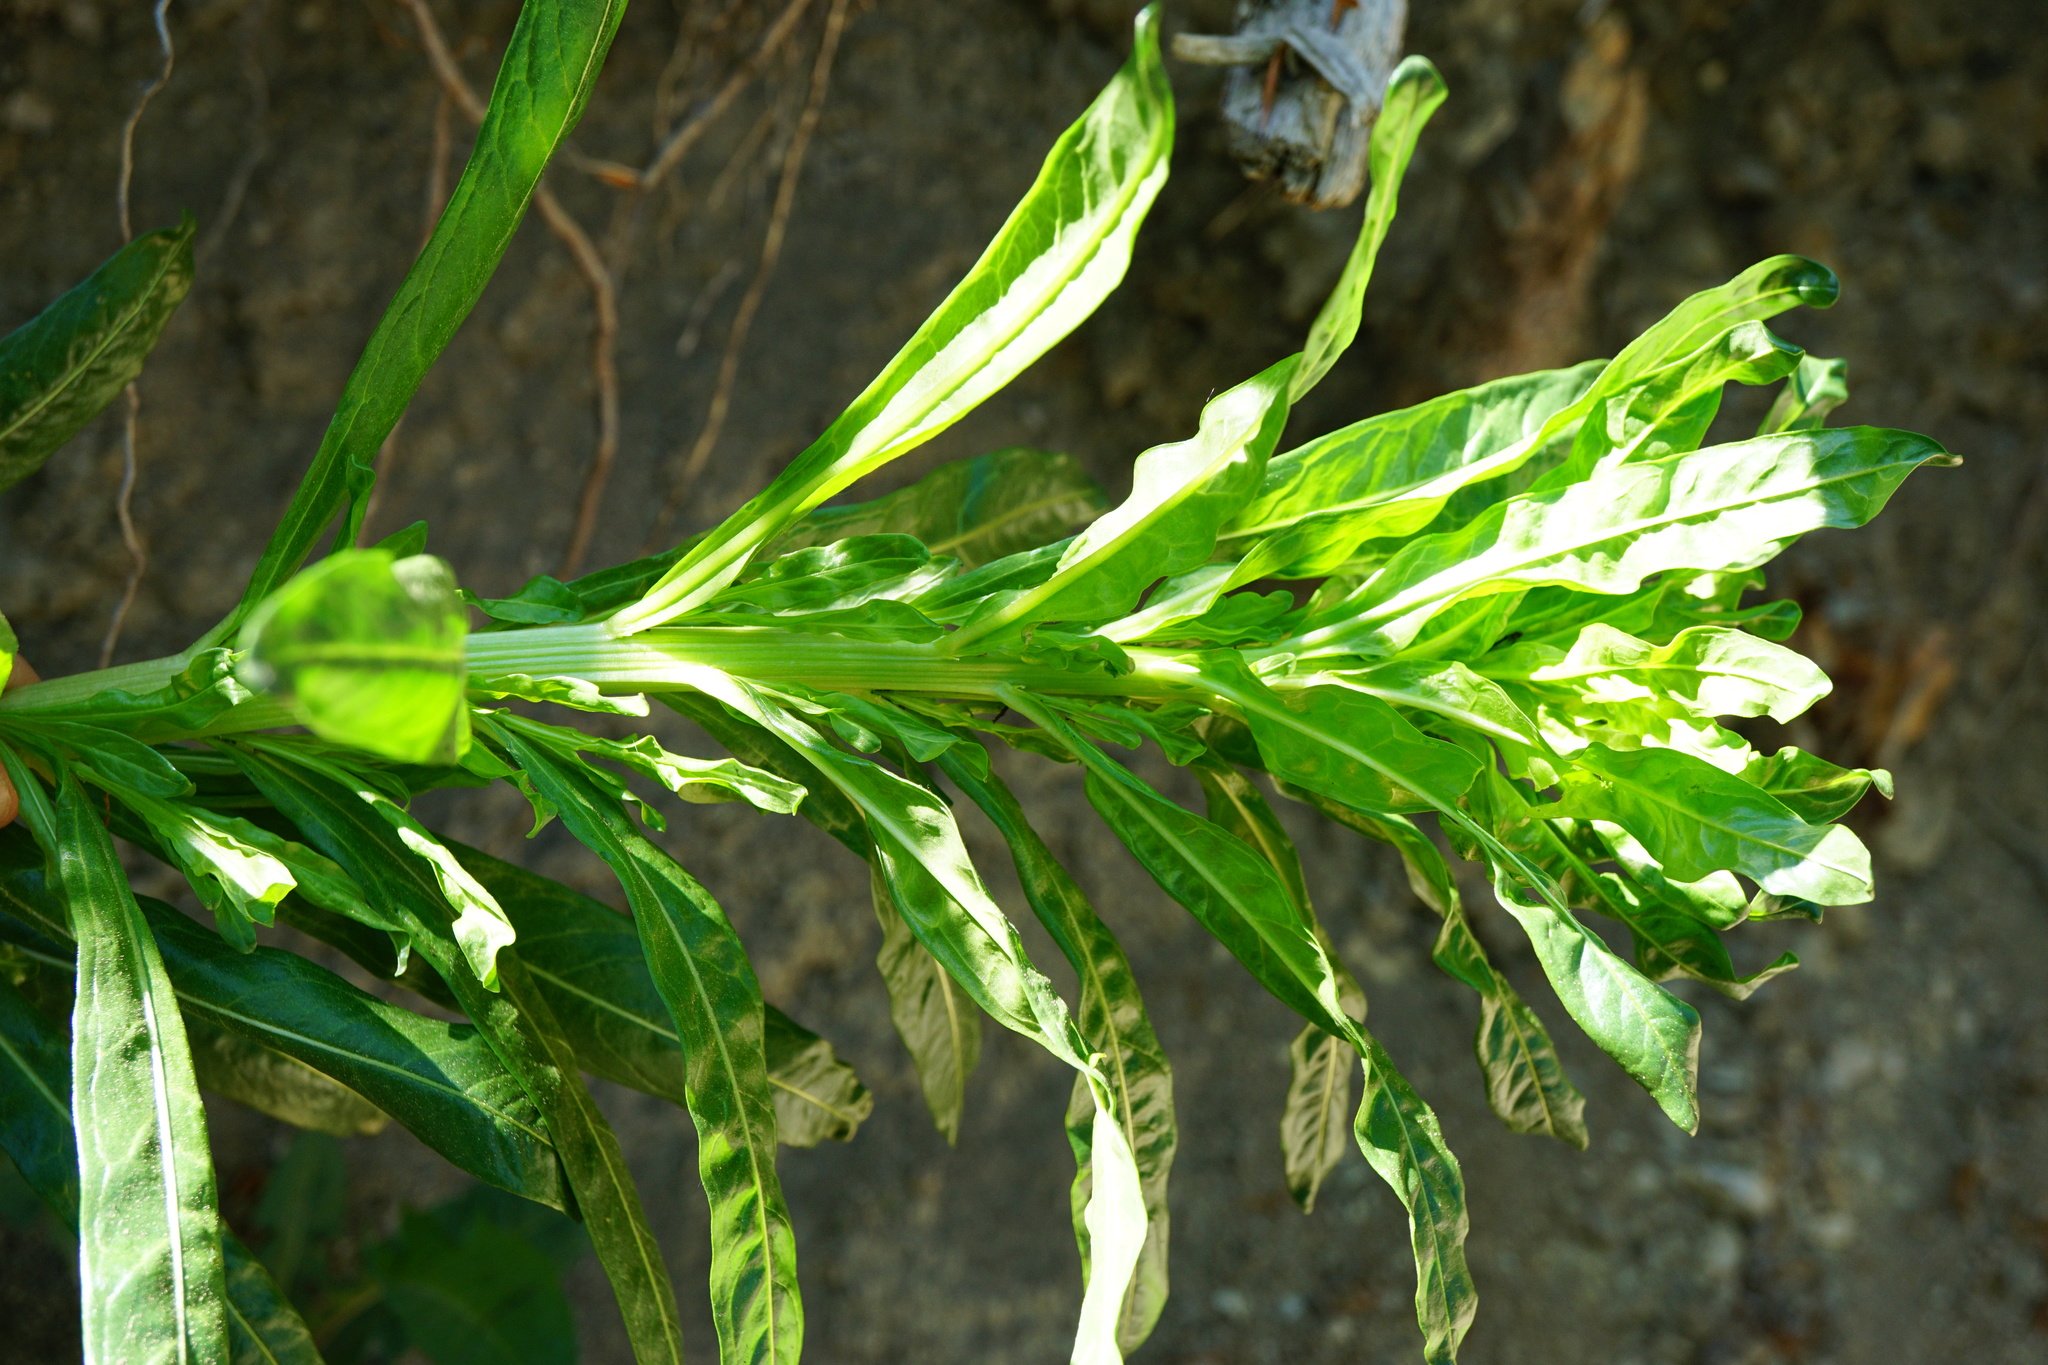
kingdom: Plantae
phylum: Tracheophyta
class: Magnoliopsida
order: Brassicales
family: Resedaceae
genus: Reseda
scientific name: Reseda luteola
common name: Weld
